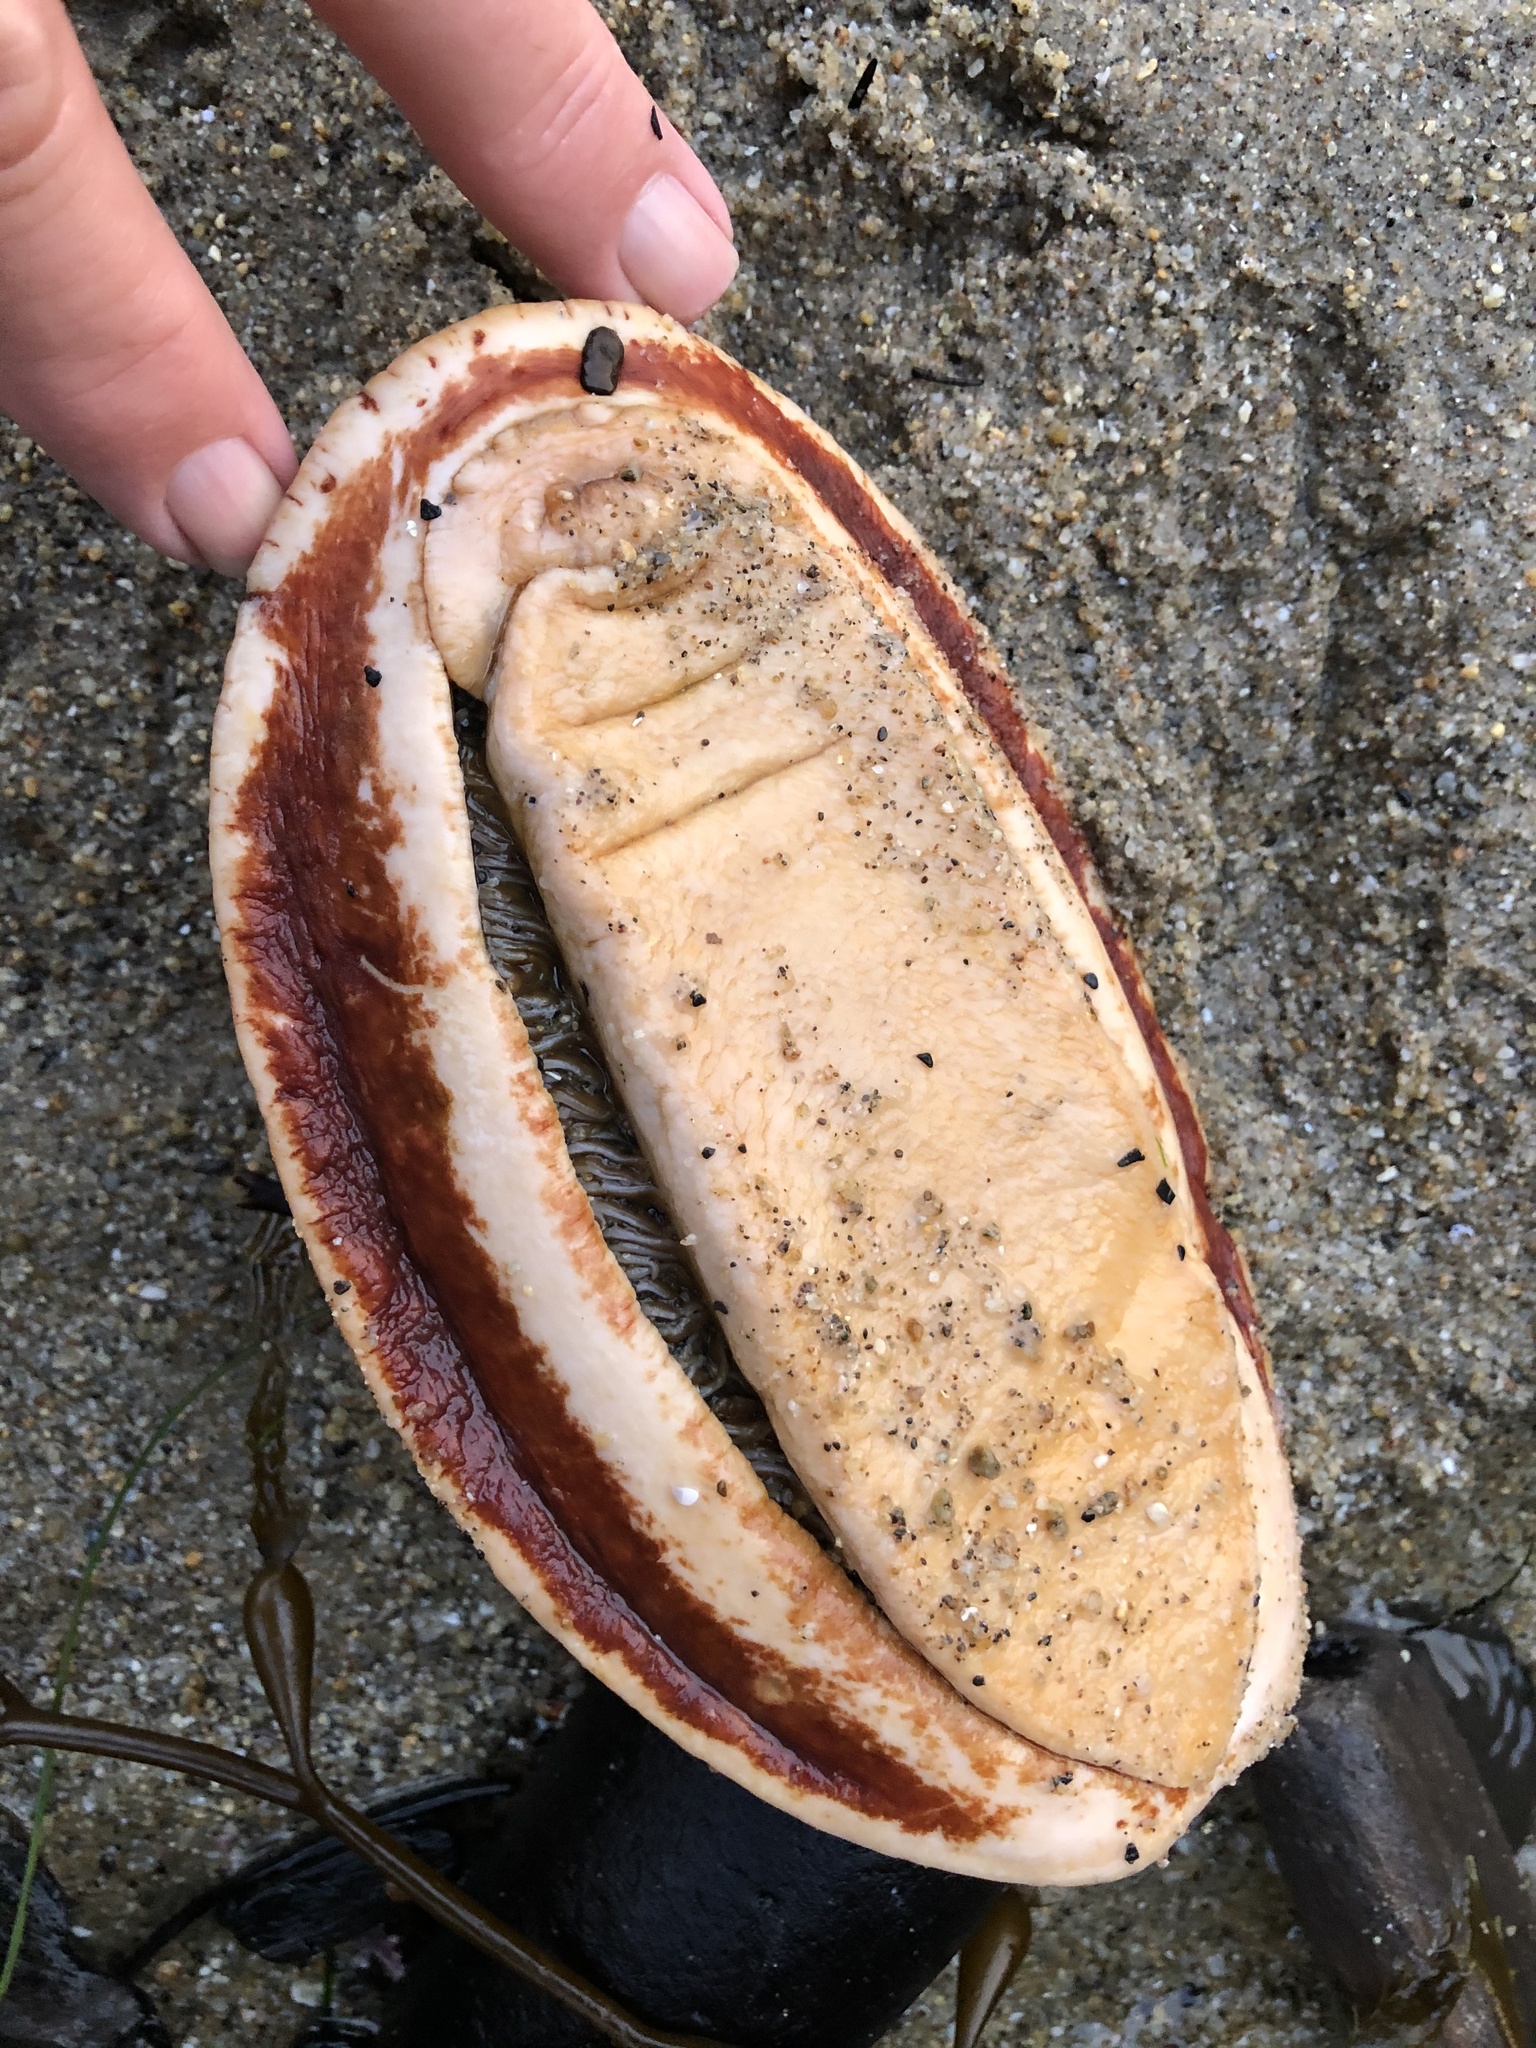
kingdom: Animalia
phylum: Mollusca
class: Polyplacophora
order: Chitonida
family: Acanthochitonidae
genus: Cryptochiton
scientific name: Cryptochiton stelleri
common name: Giant pacific chiton
